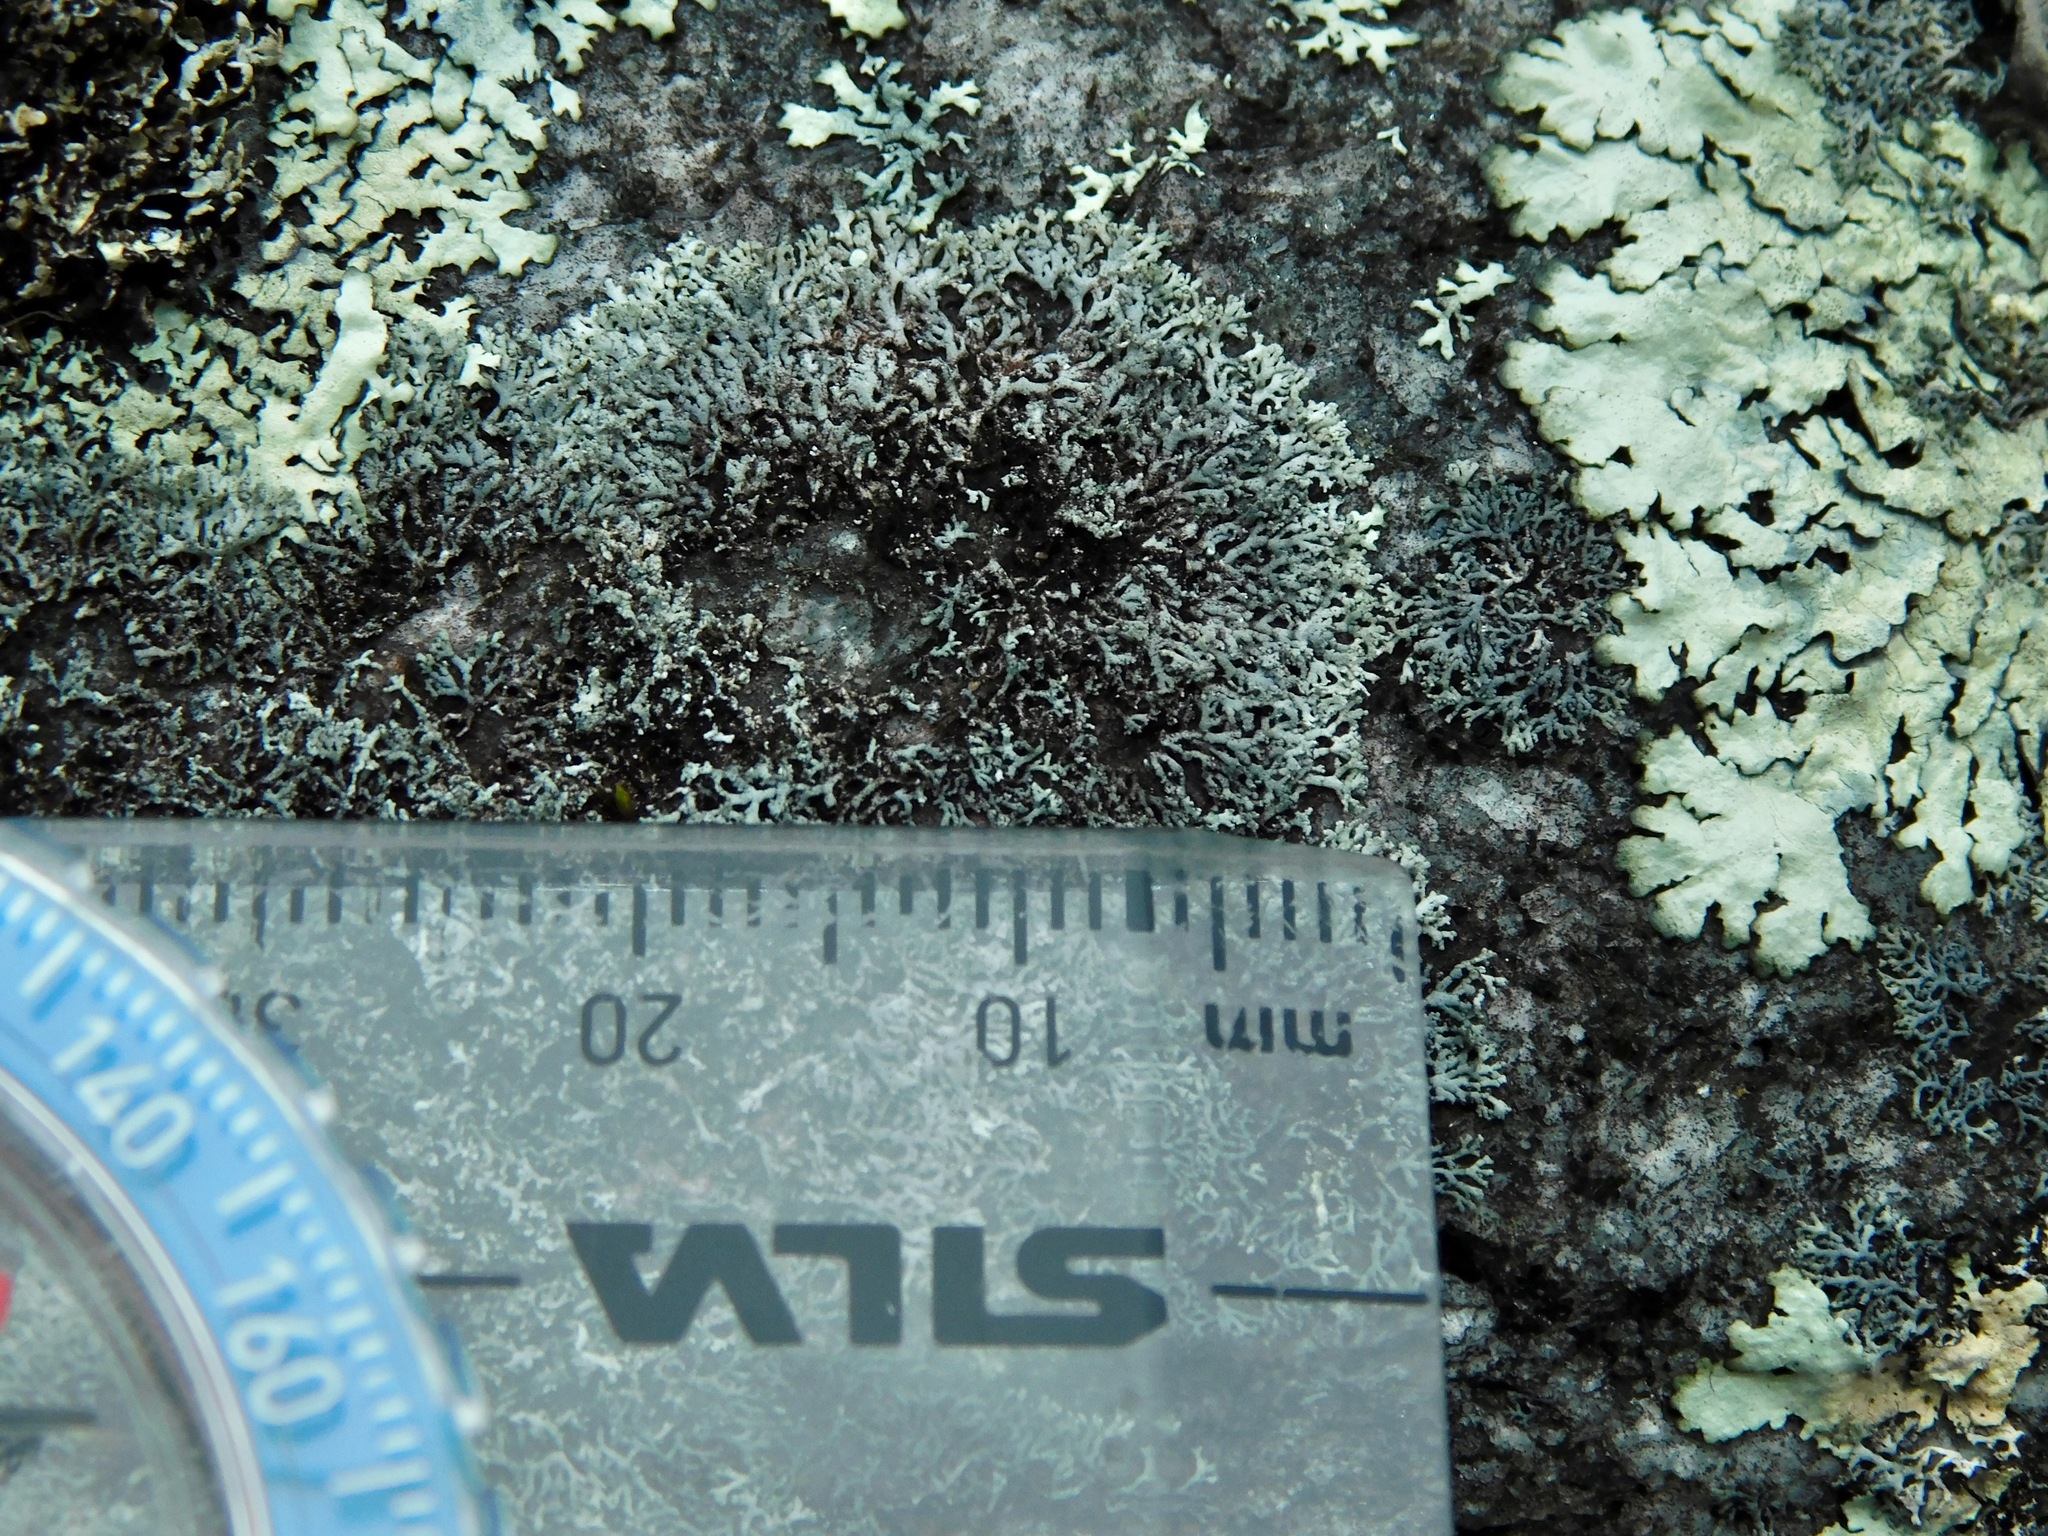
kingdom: Fungi
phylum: Ascomycota
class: Lecanoromycetes
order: Caliciales
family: Physciaceae
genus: Physcia
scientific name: Physcia thomsoniana
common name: Thomson's rosette lichen
